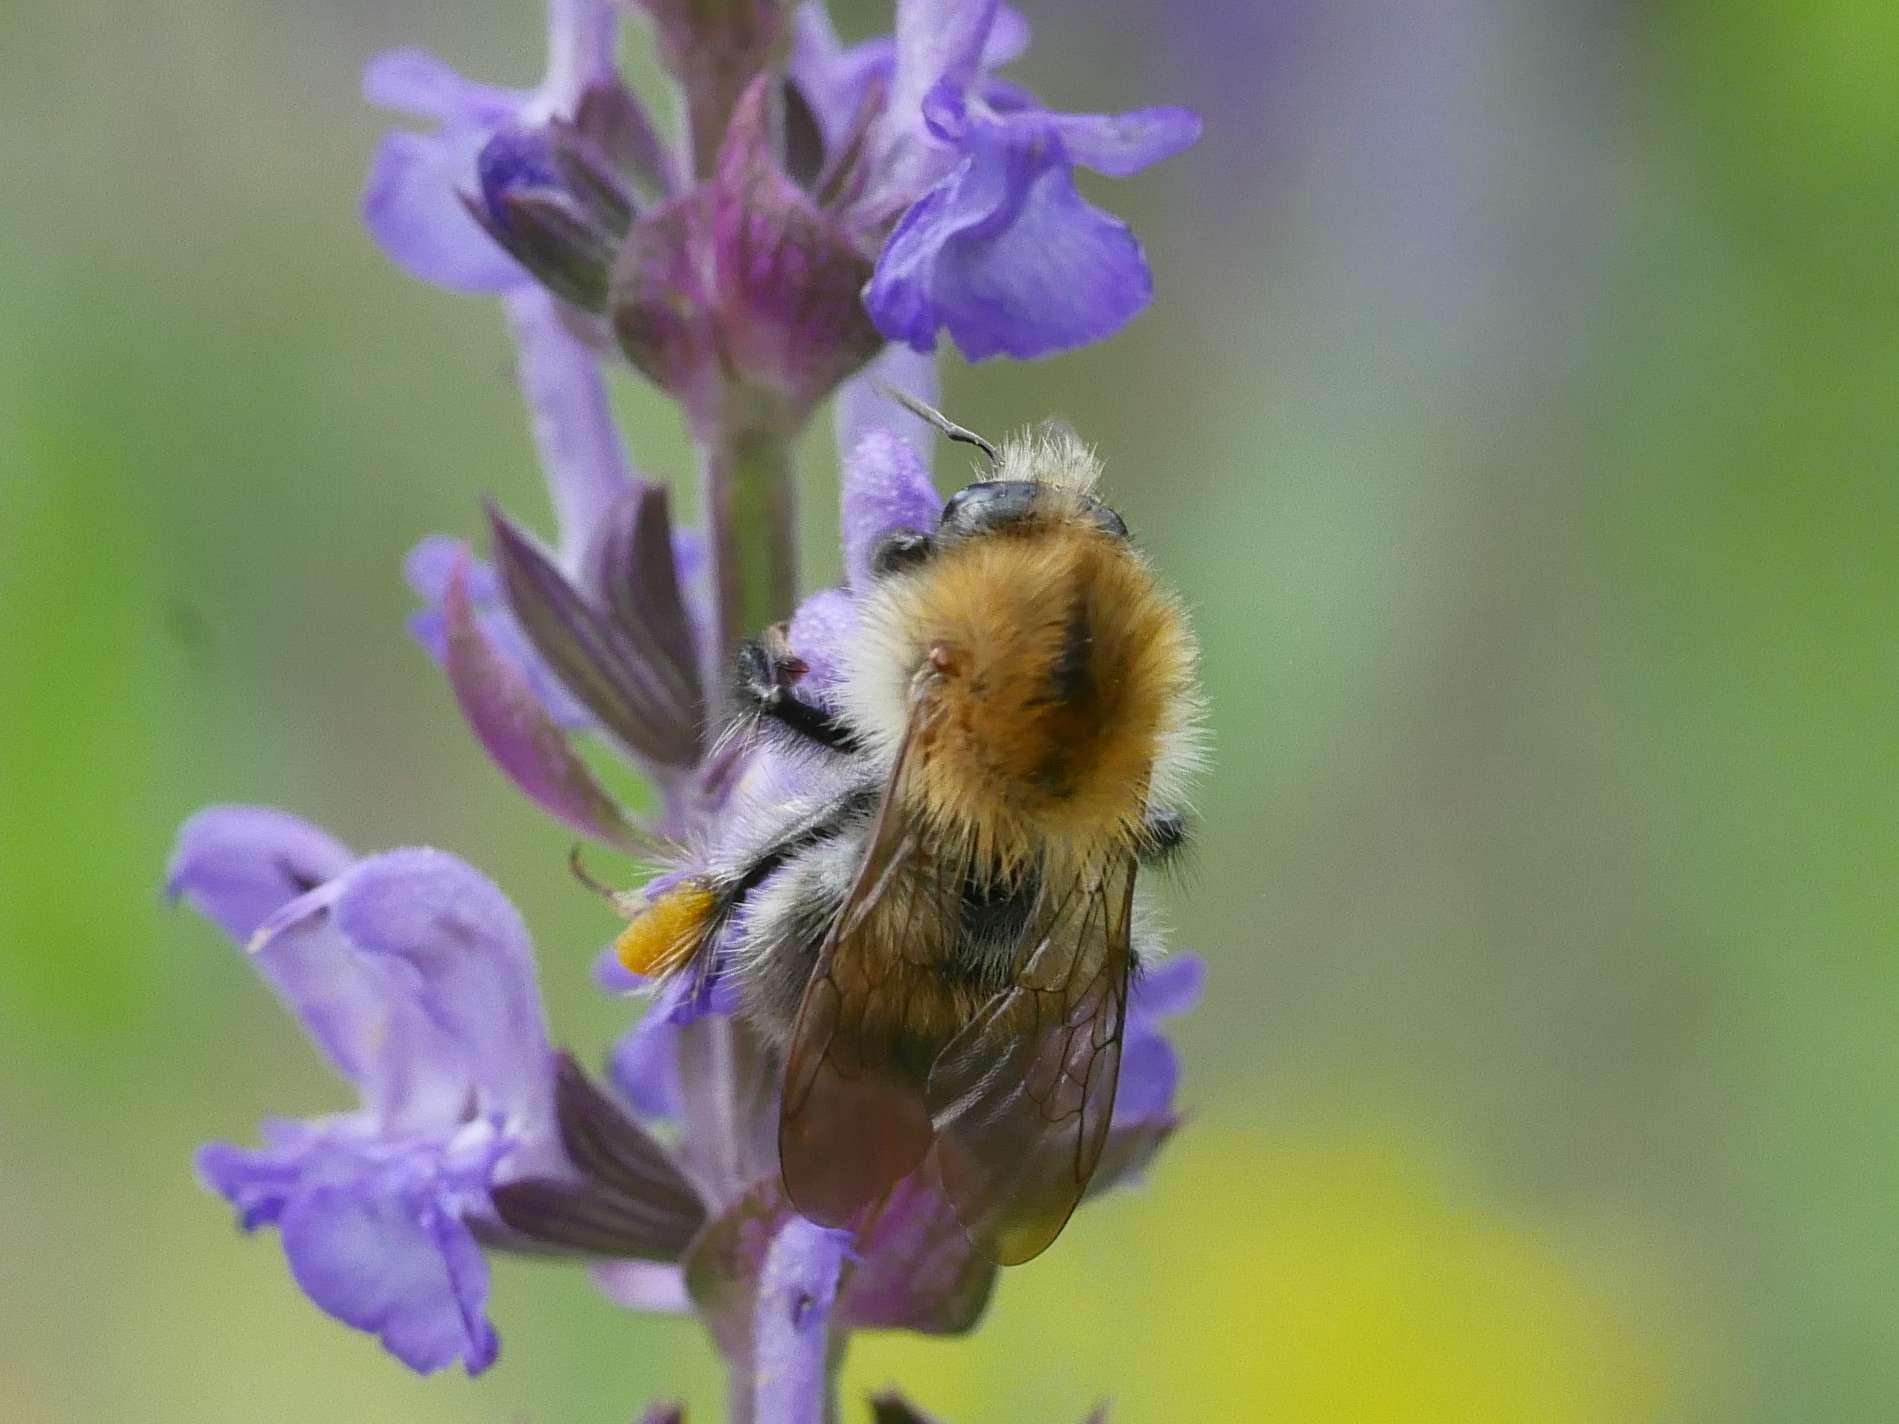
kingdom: Animalia
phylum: Arthropoda
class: Insecta
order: Hymenoptera
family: Apidae
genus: Bombus
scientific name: Bombus pascuorum
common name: Common carder bee
